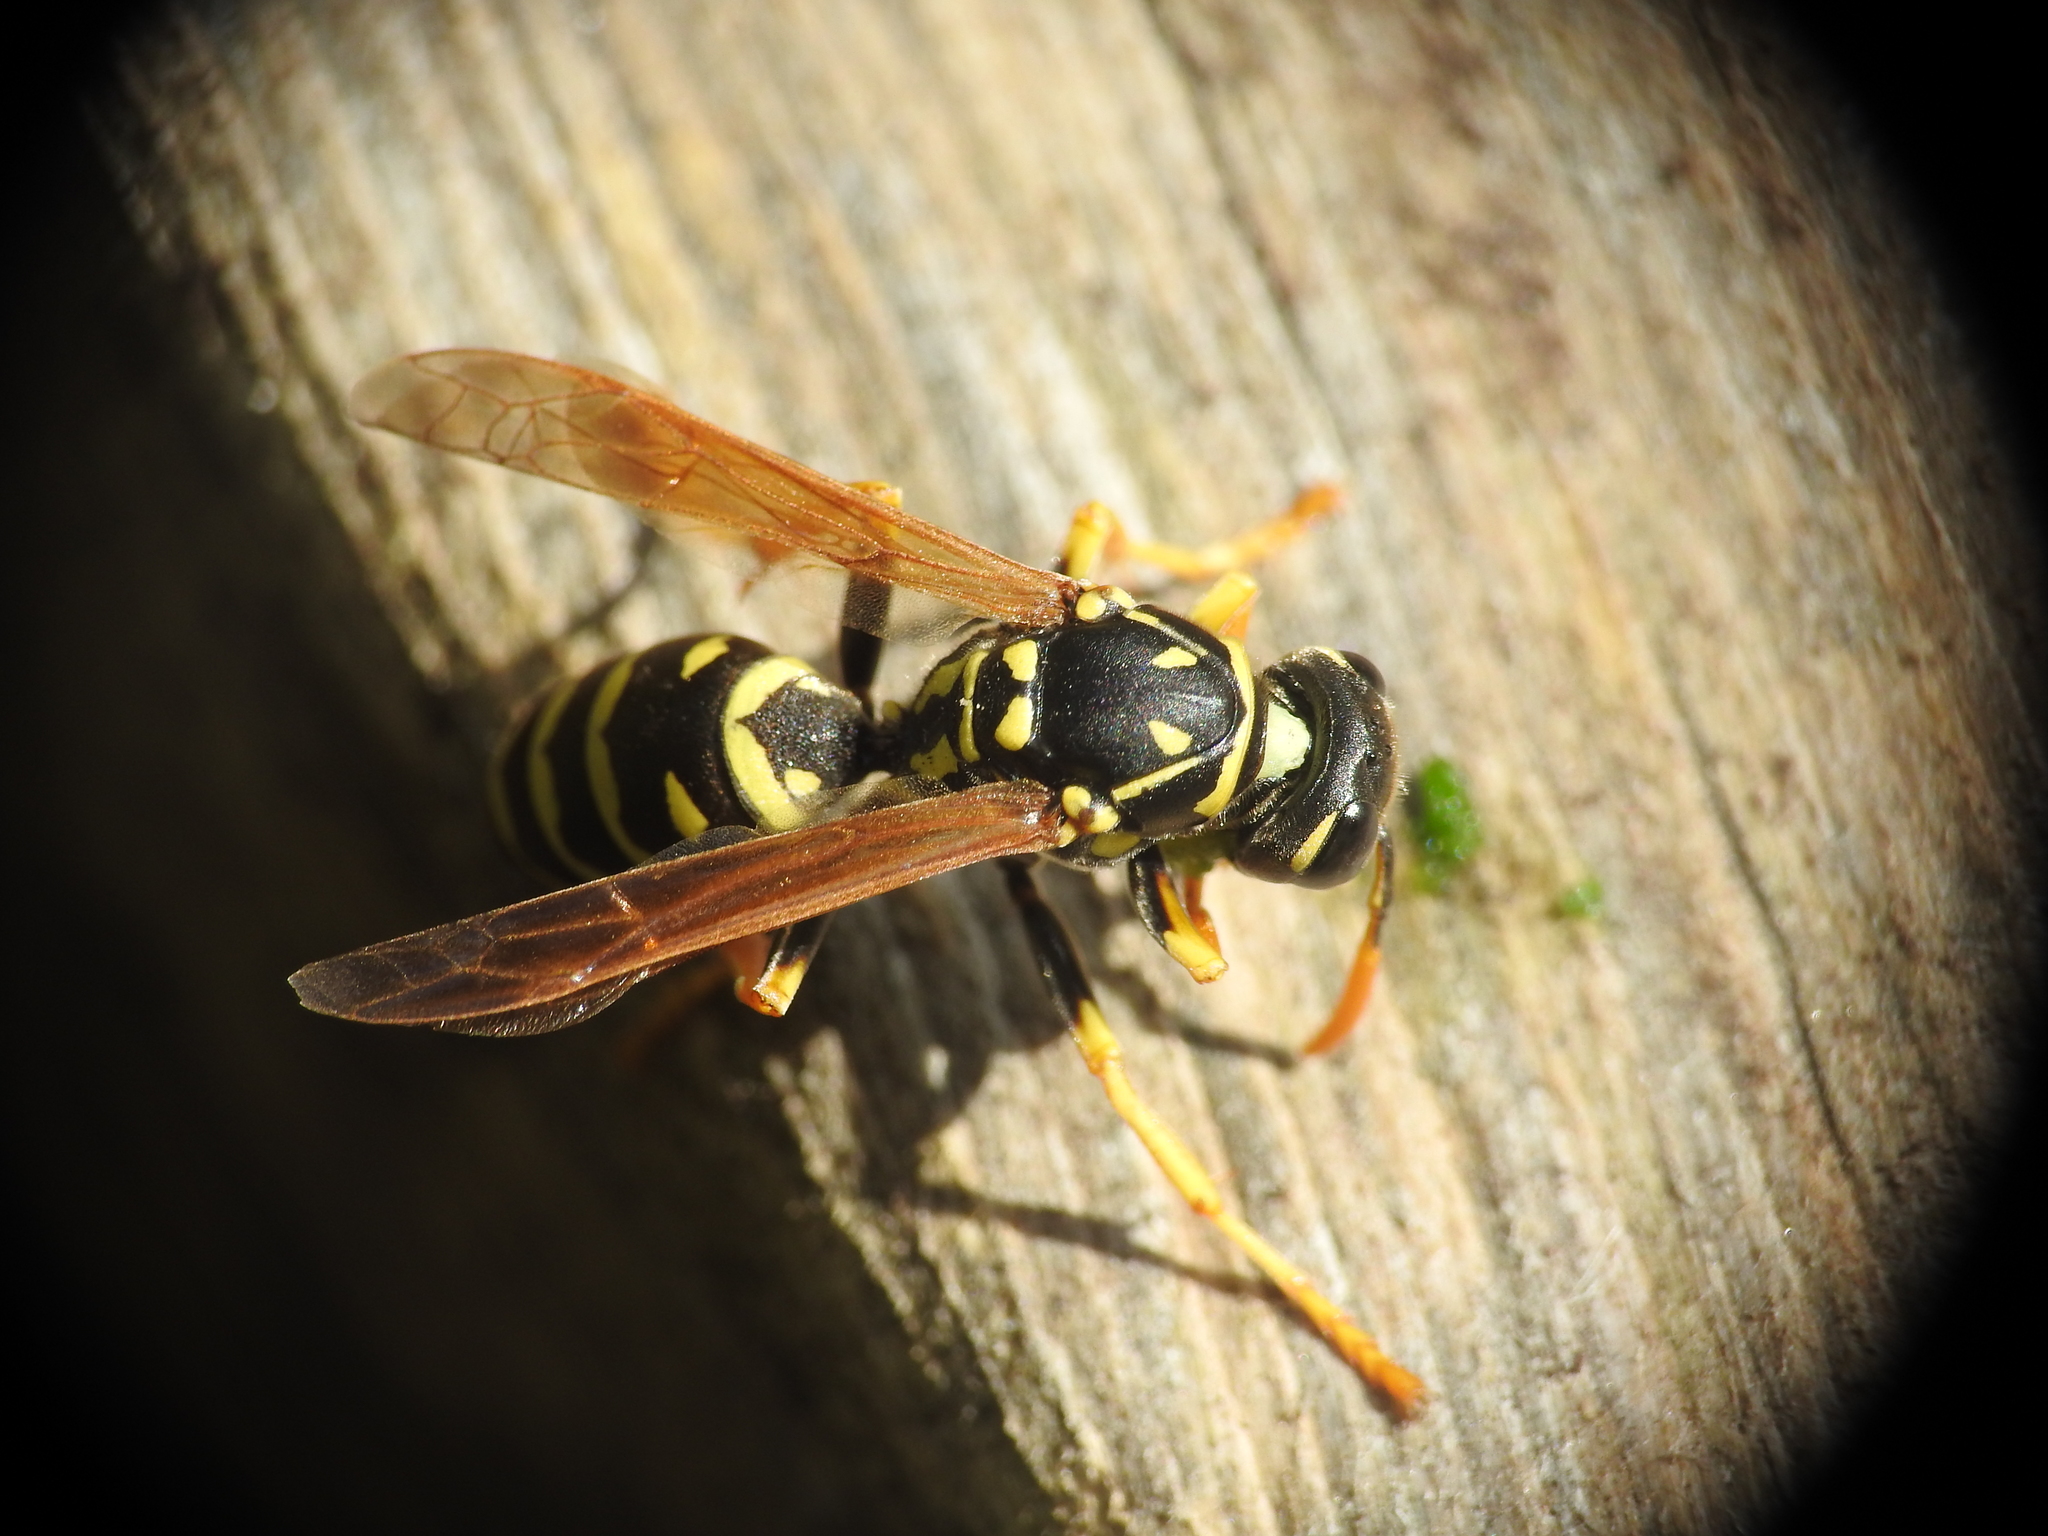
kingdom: Animalia
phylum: Arthropoda
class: Insecta
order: Hymenoptera
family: Eumenidae
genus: Polistes
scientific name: Polistes dominula
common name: Paper wasp
